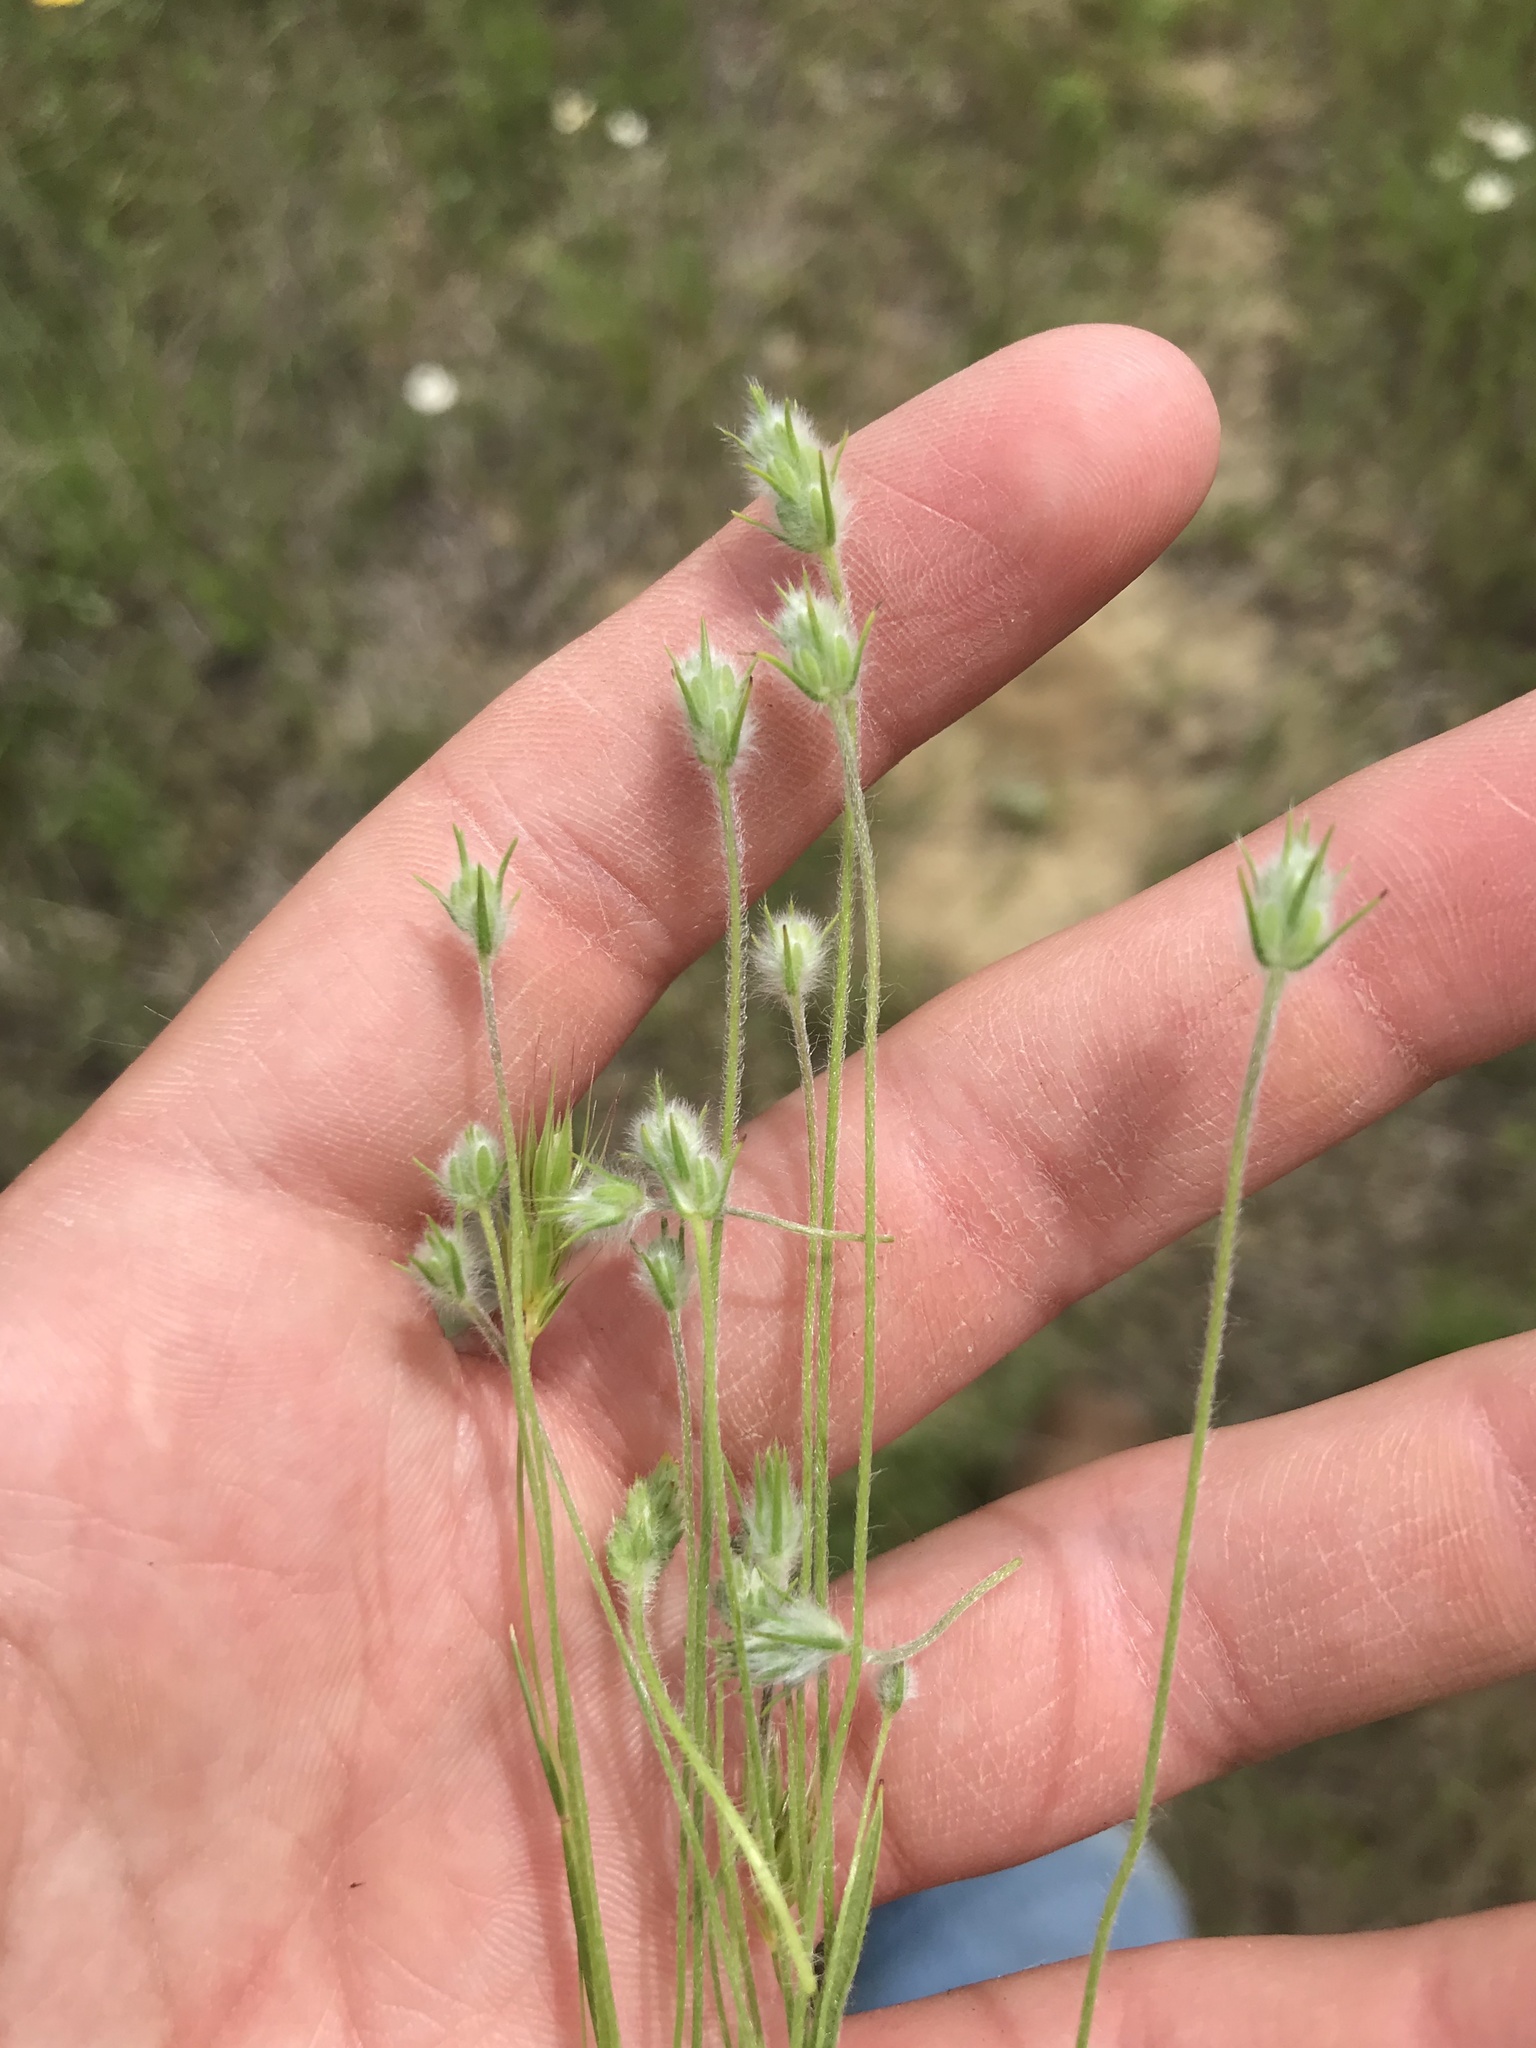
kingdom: Plantae
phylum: Tracheophyta
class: Magnoliopsida
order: Lamiales
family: Plantaginaceae
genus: Plantago
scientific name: Plantago aristata
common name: Bracted plantain
